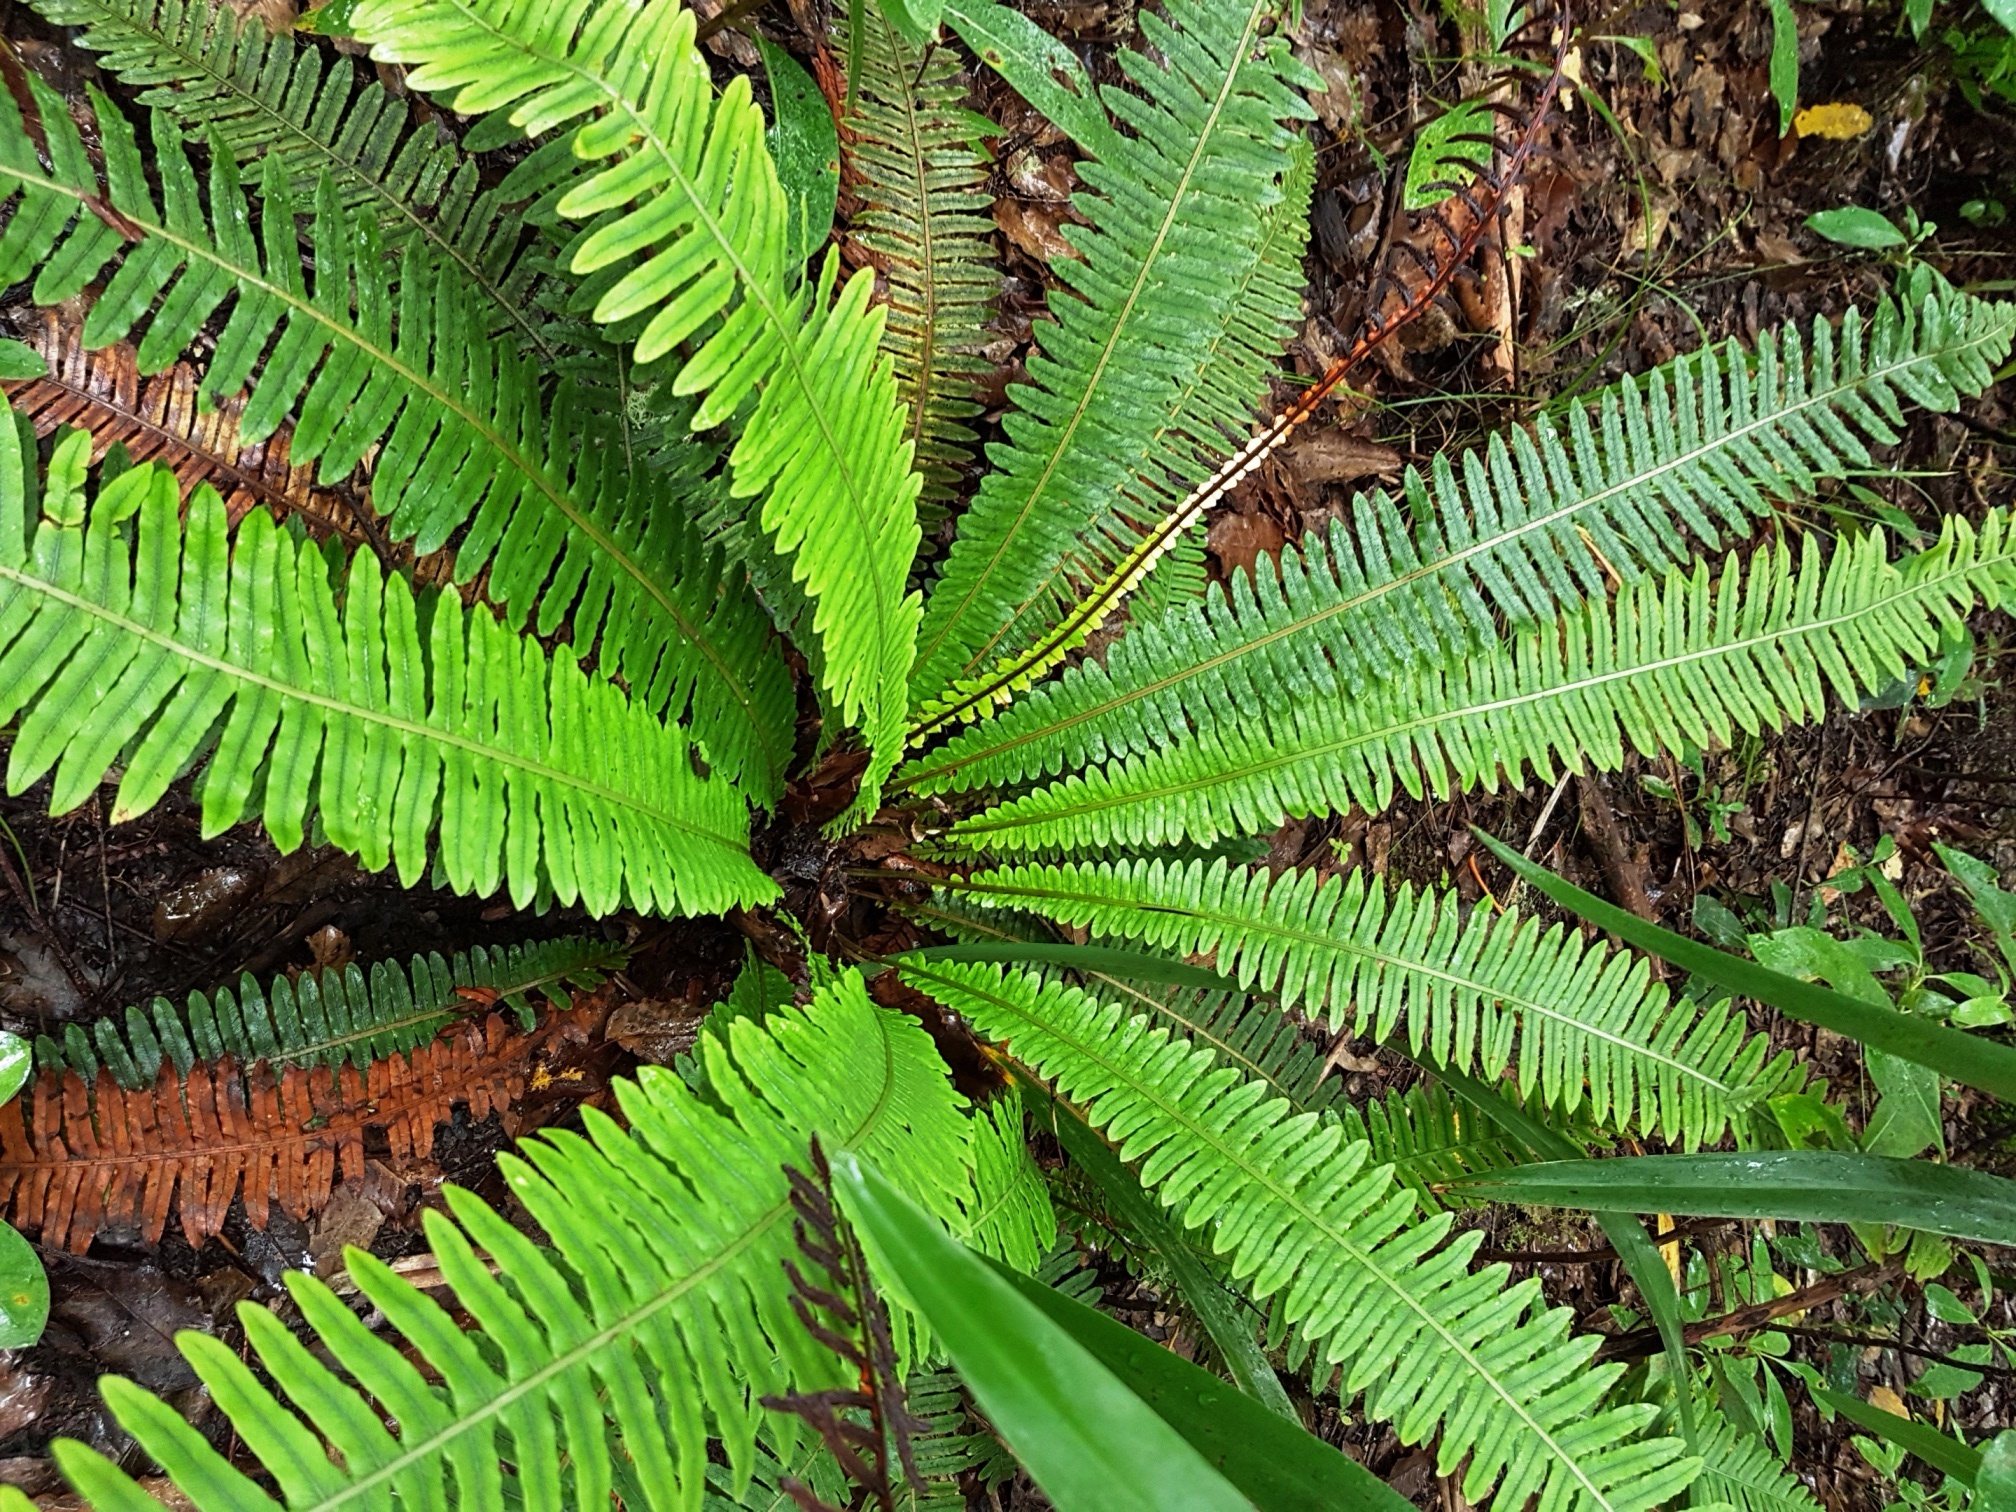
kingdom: Plantae
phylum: Tracheophyta
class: Polypodiopsida
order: Polypodiales
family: Blechnaceae
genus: Lomaria
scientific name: Lomaria discolor
